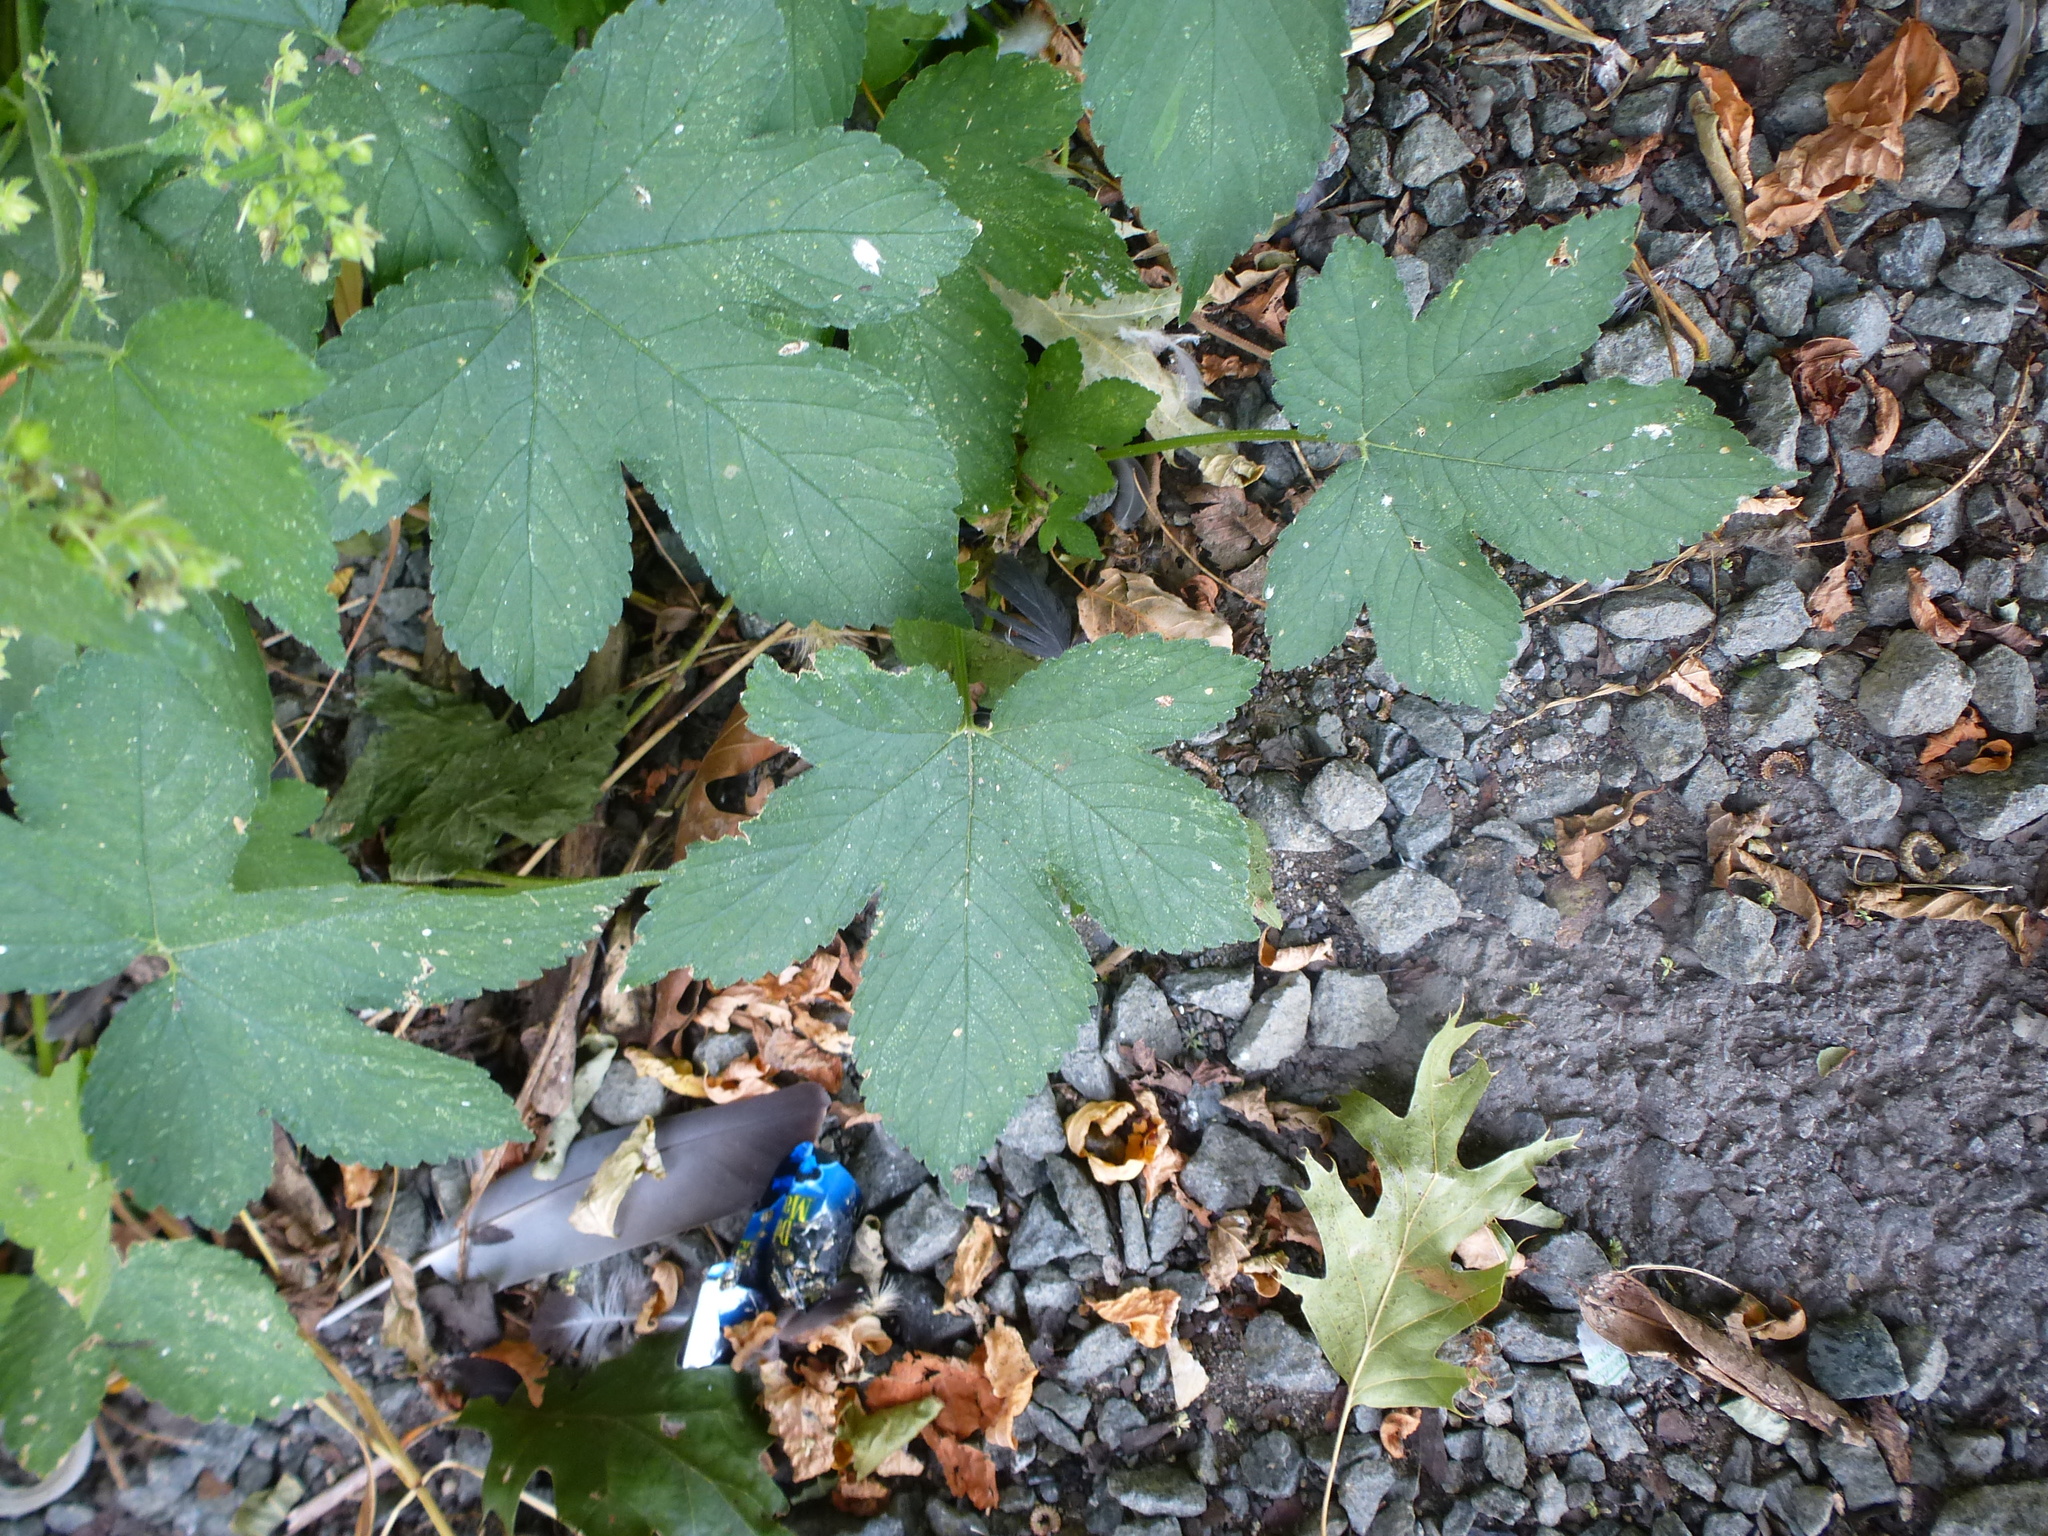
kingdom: Plantae
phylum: Tracheophyta
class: Magnoliopsida
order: Rosales
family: Cannabaceae
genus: Humulus
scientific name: Humulus scandens
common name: Japanese hop
